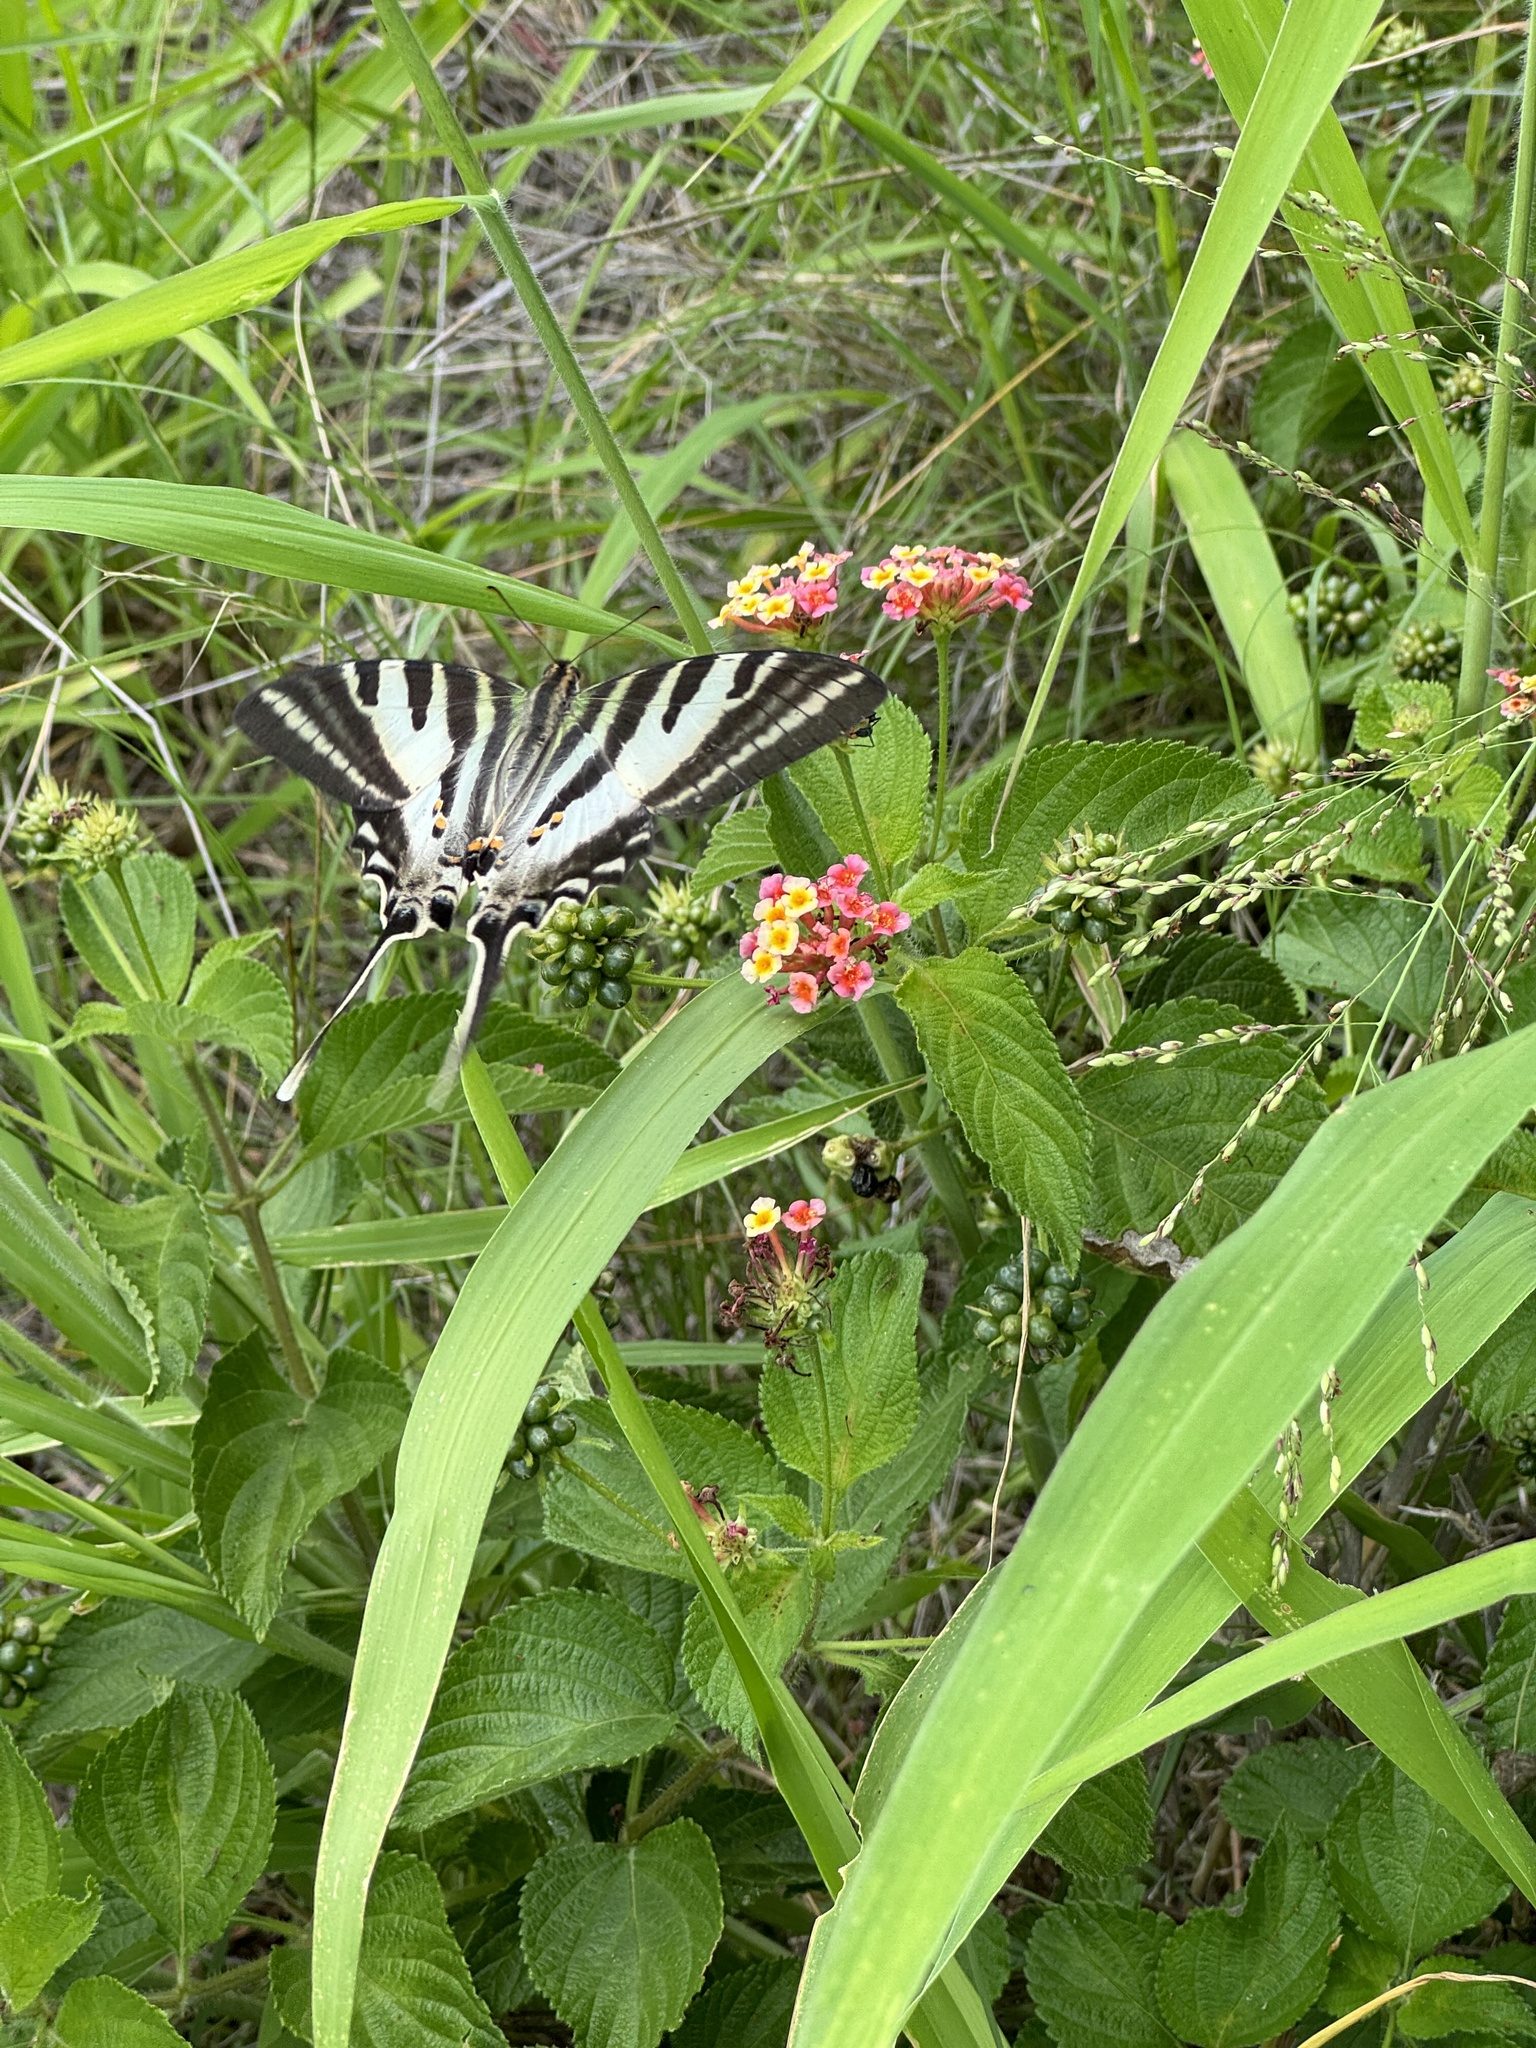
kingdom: Animalia
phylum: Arthropoda
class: Insecta
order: Lepidoptera
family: Papilionidae
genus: Protographium
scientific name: Protographium leosthenes
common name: Four-bar swordtail
